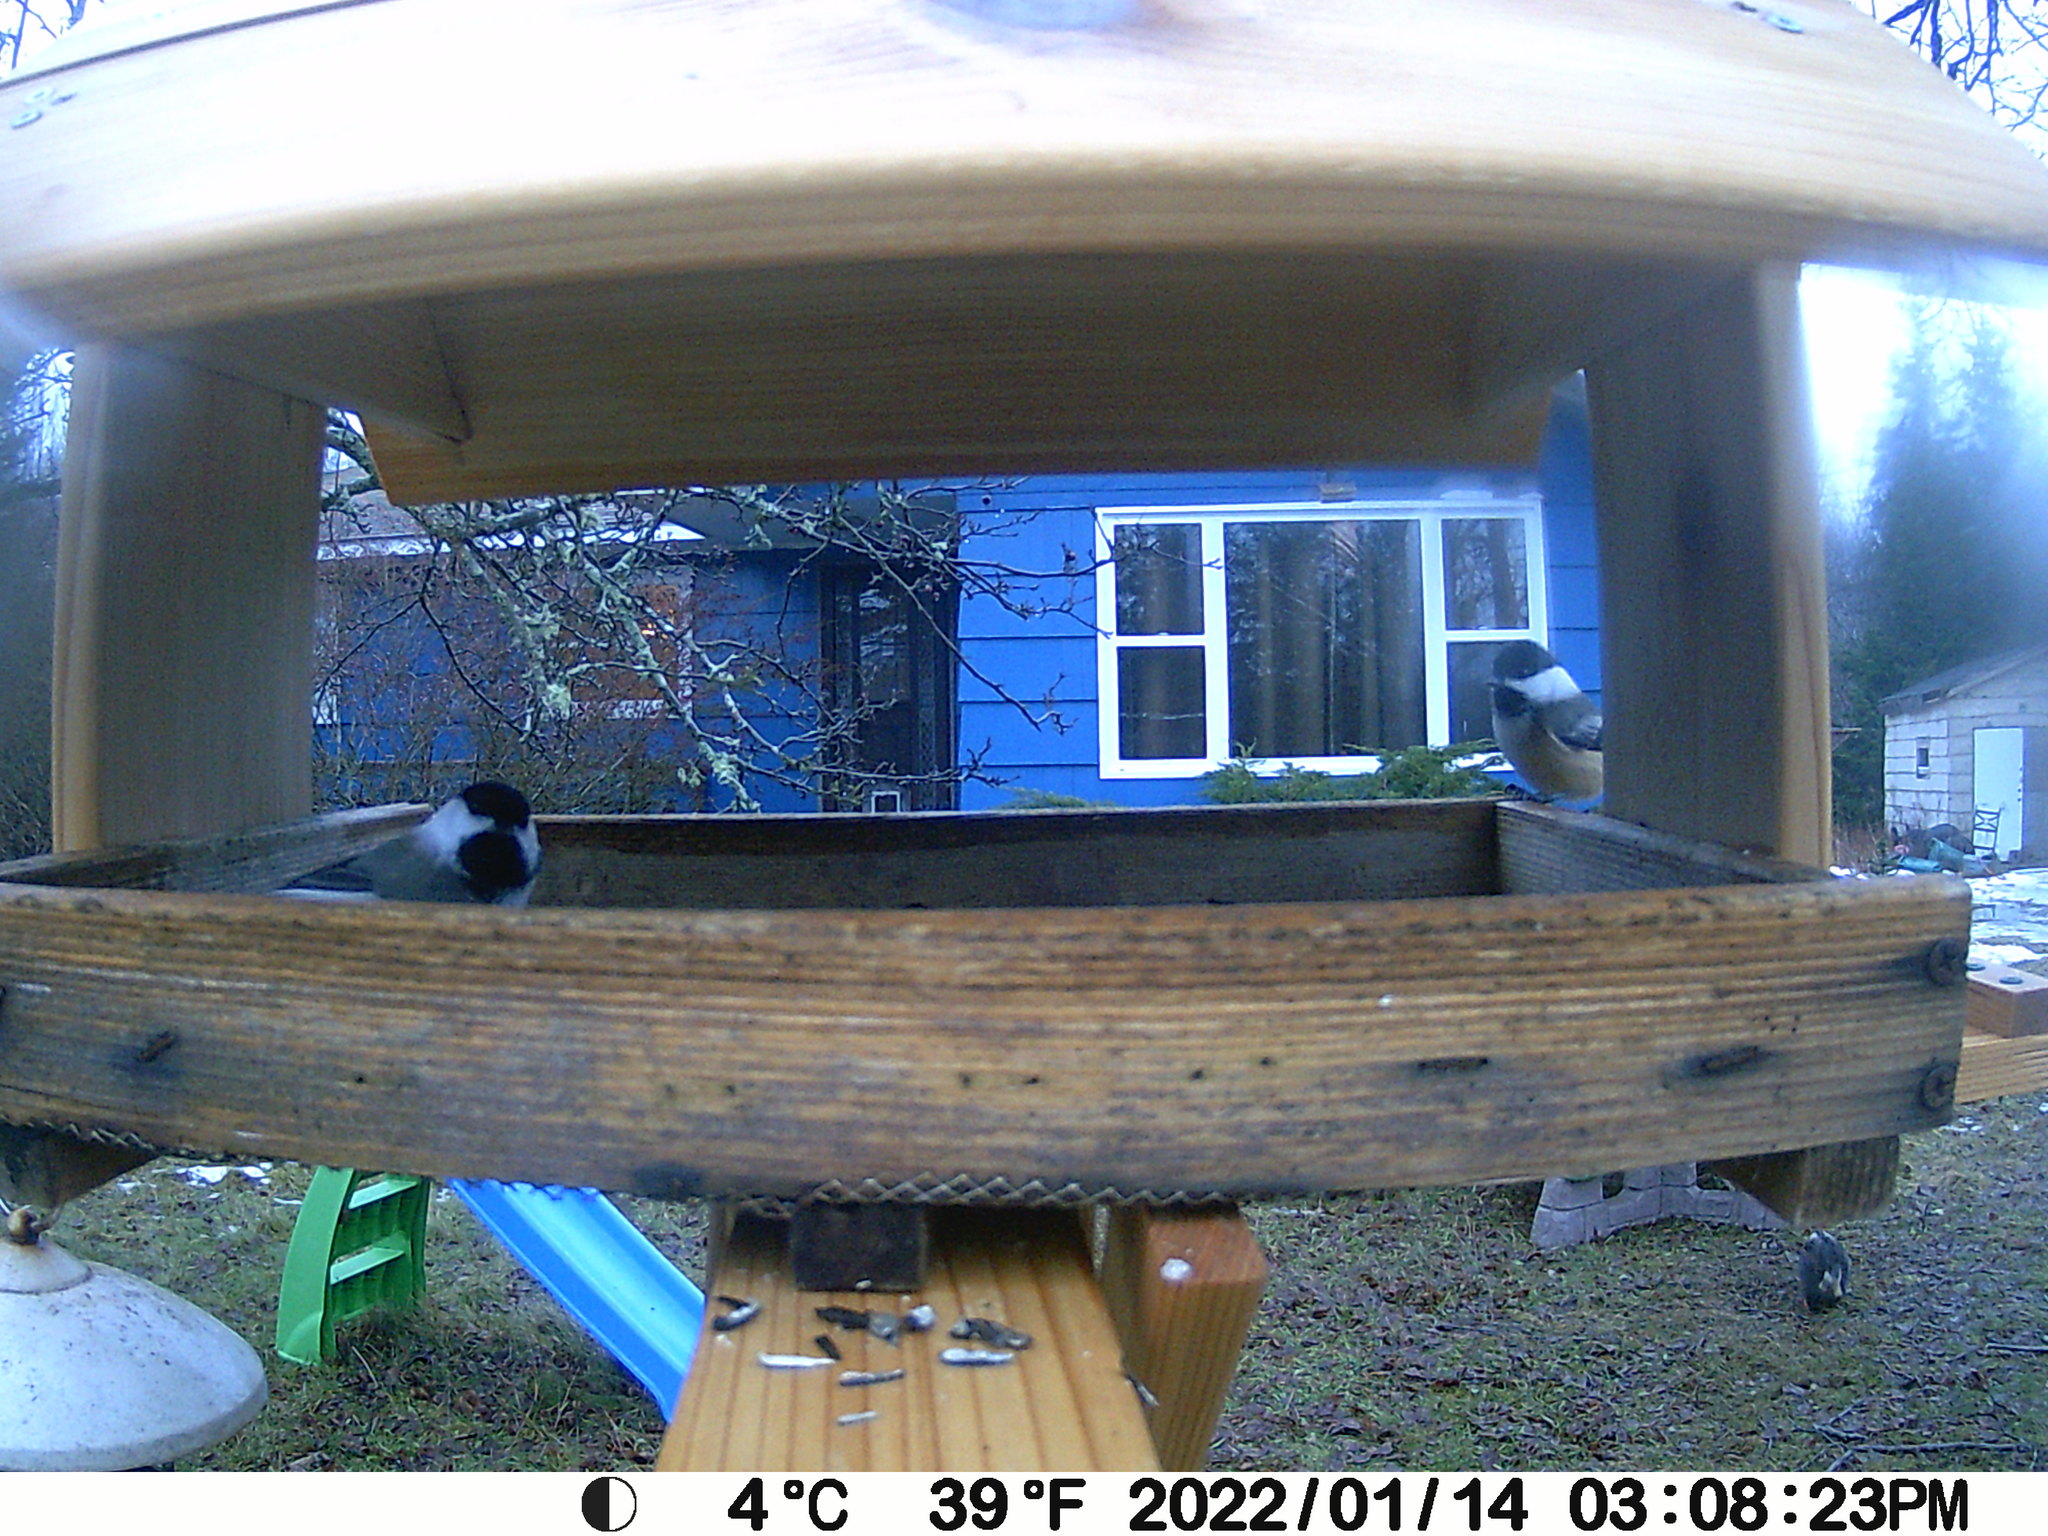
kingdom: Animalia
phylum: Chordata
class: Aves
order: Passeriformes
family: Paridae
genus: Poecile
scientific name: Poecile atricapillus
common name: Black-capped chickadee
